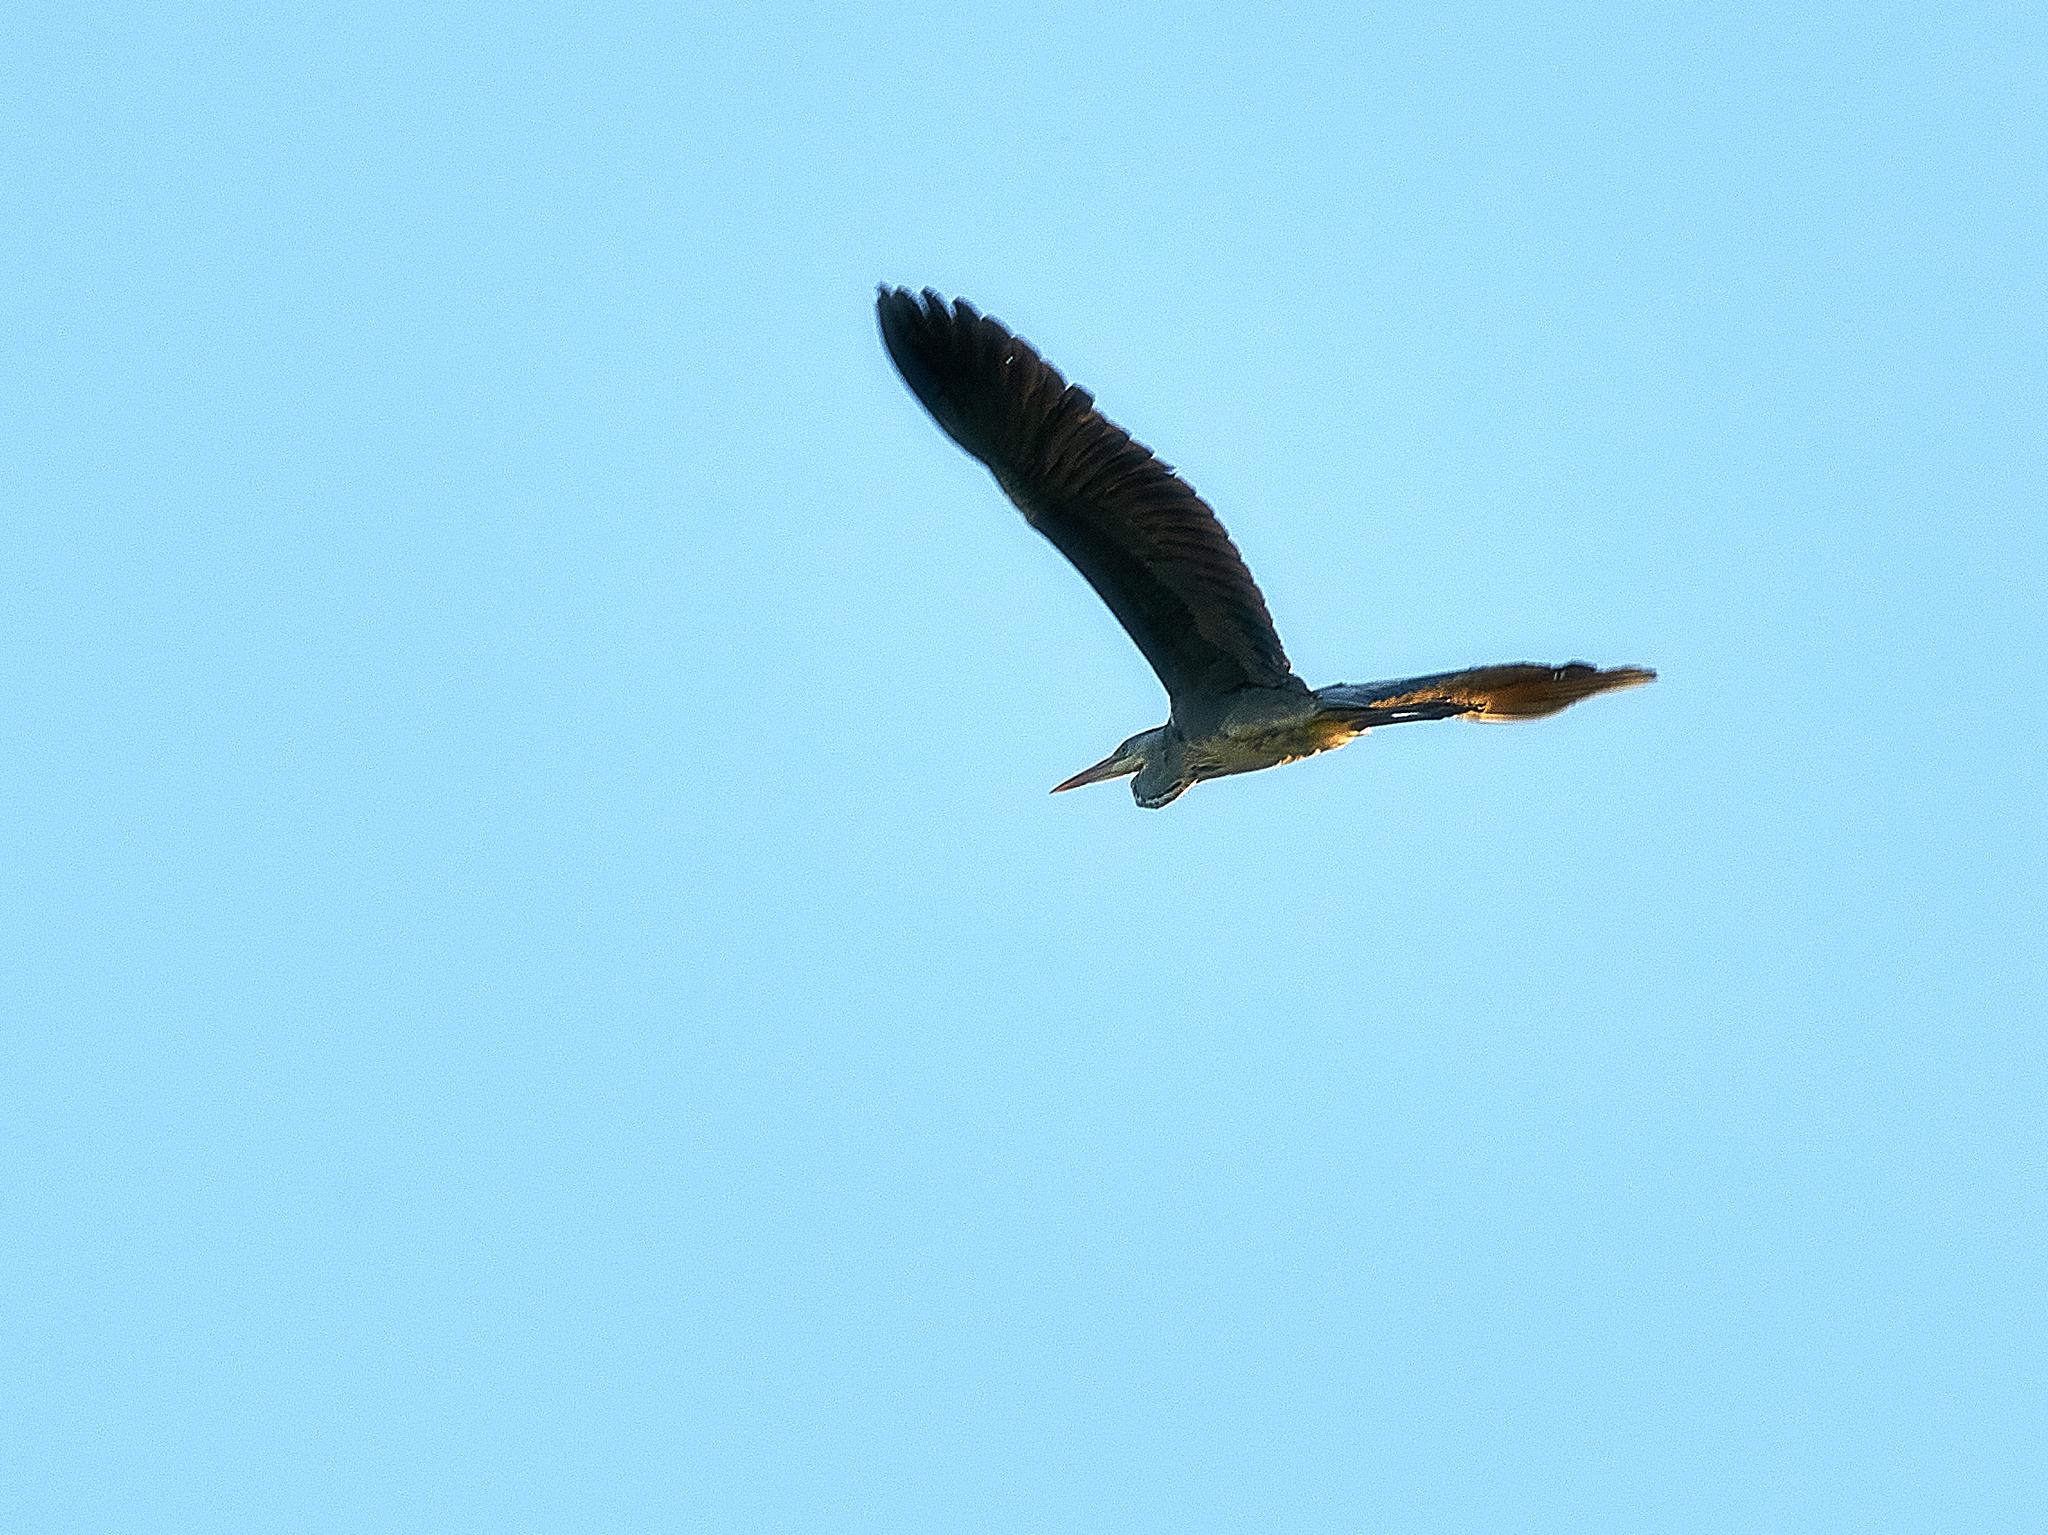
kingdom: Animalia
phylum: Chordata
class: Aves
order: Pelecaniformes
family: Ardeidae
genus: Ardea
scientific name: Ardea cinerea
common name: Grey heron
